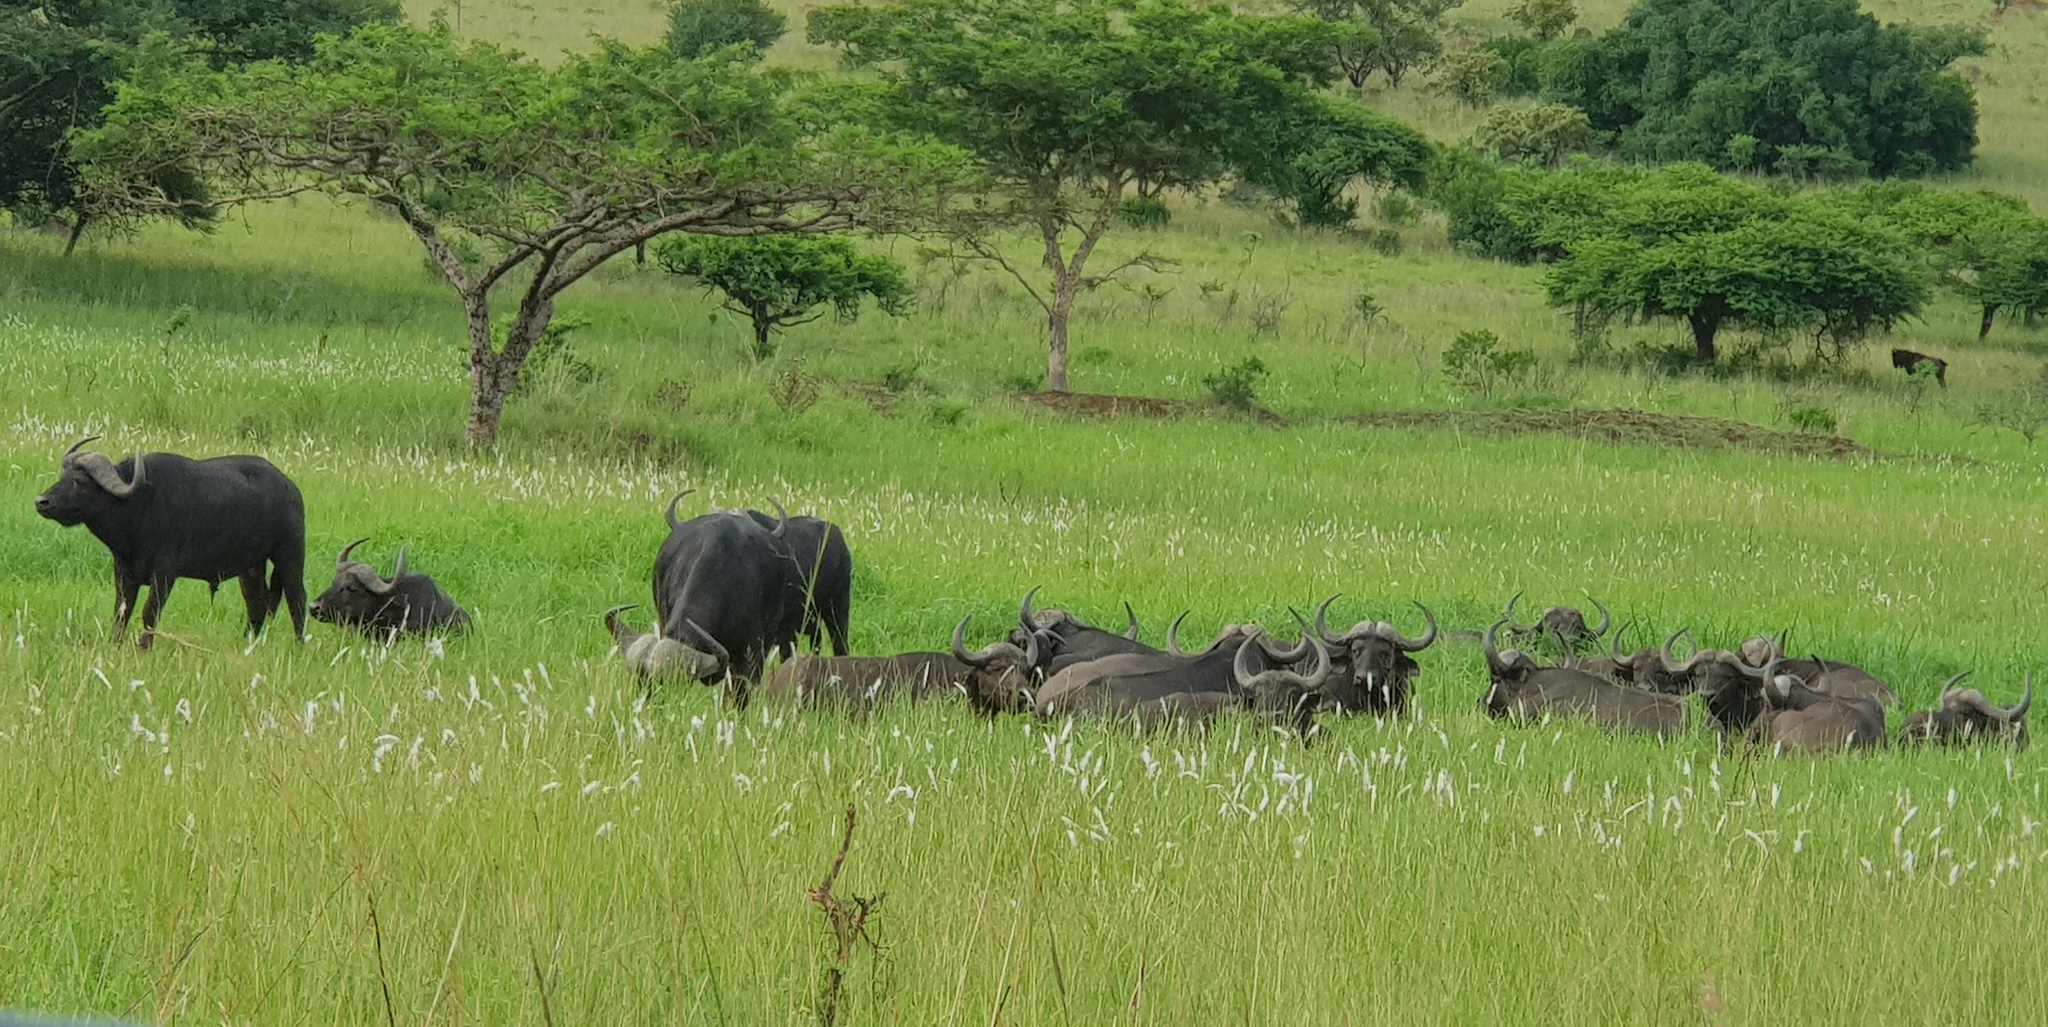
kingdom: Animalia
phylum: Chordata
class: Mammalia
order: Artiodactyla
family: Bovidae
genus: Syncerus
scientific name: Syncerus caffer
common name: African buffalo
